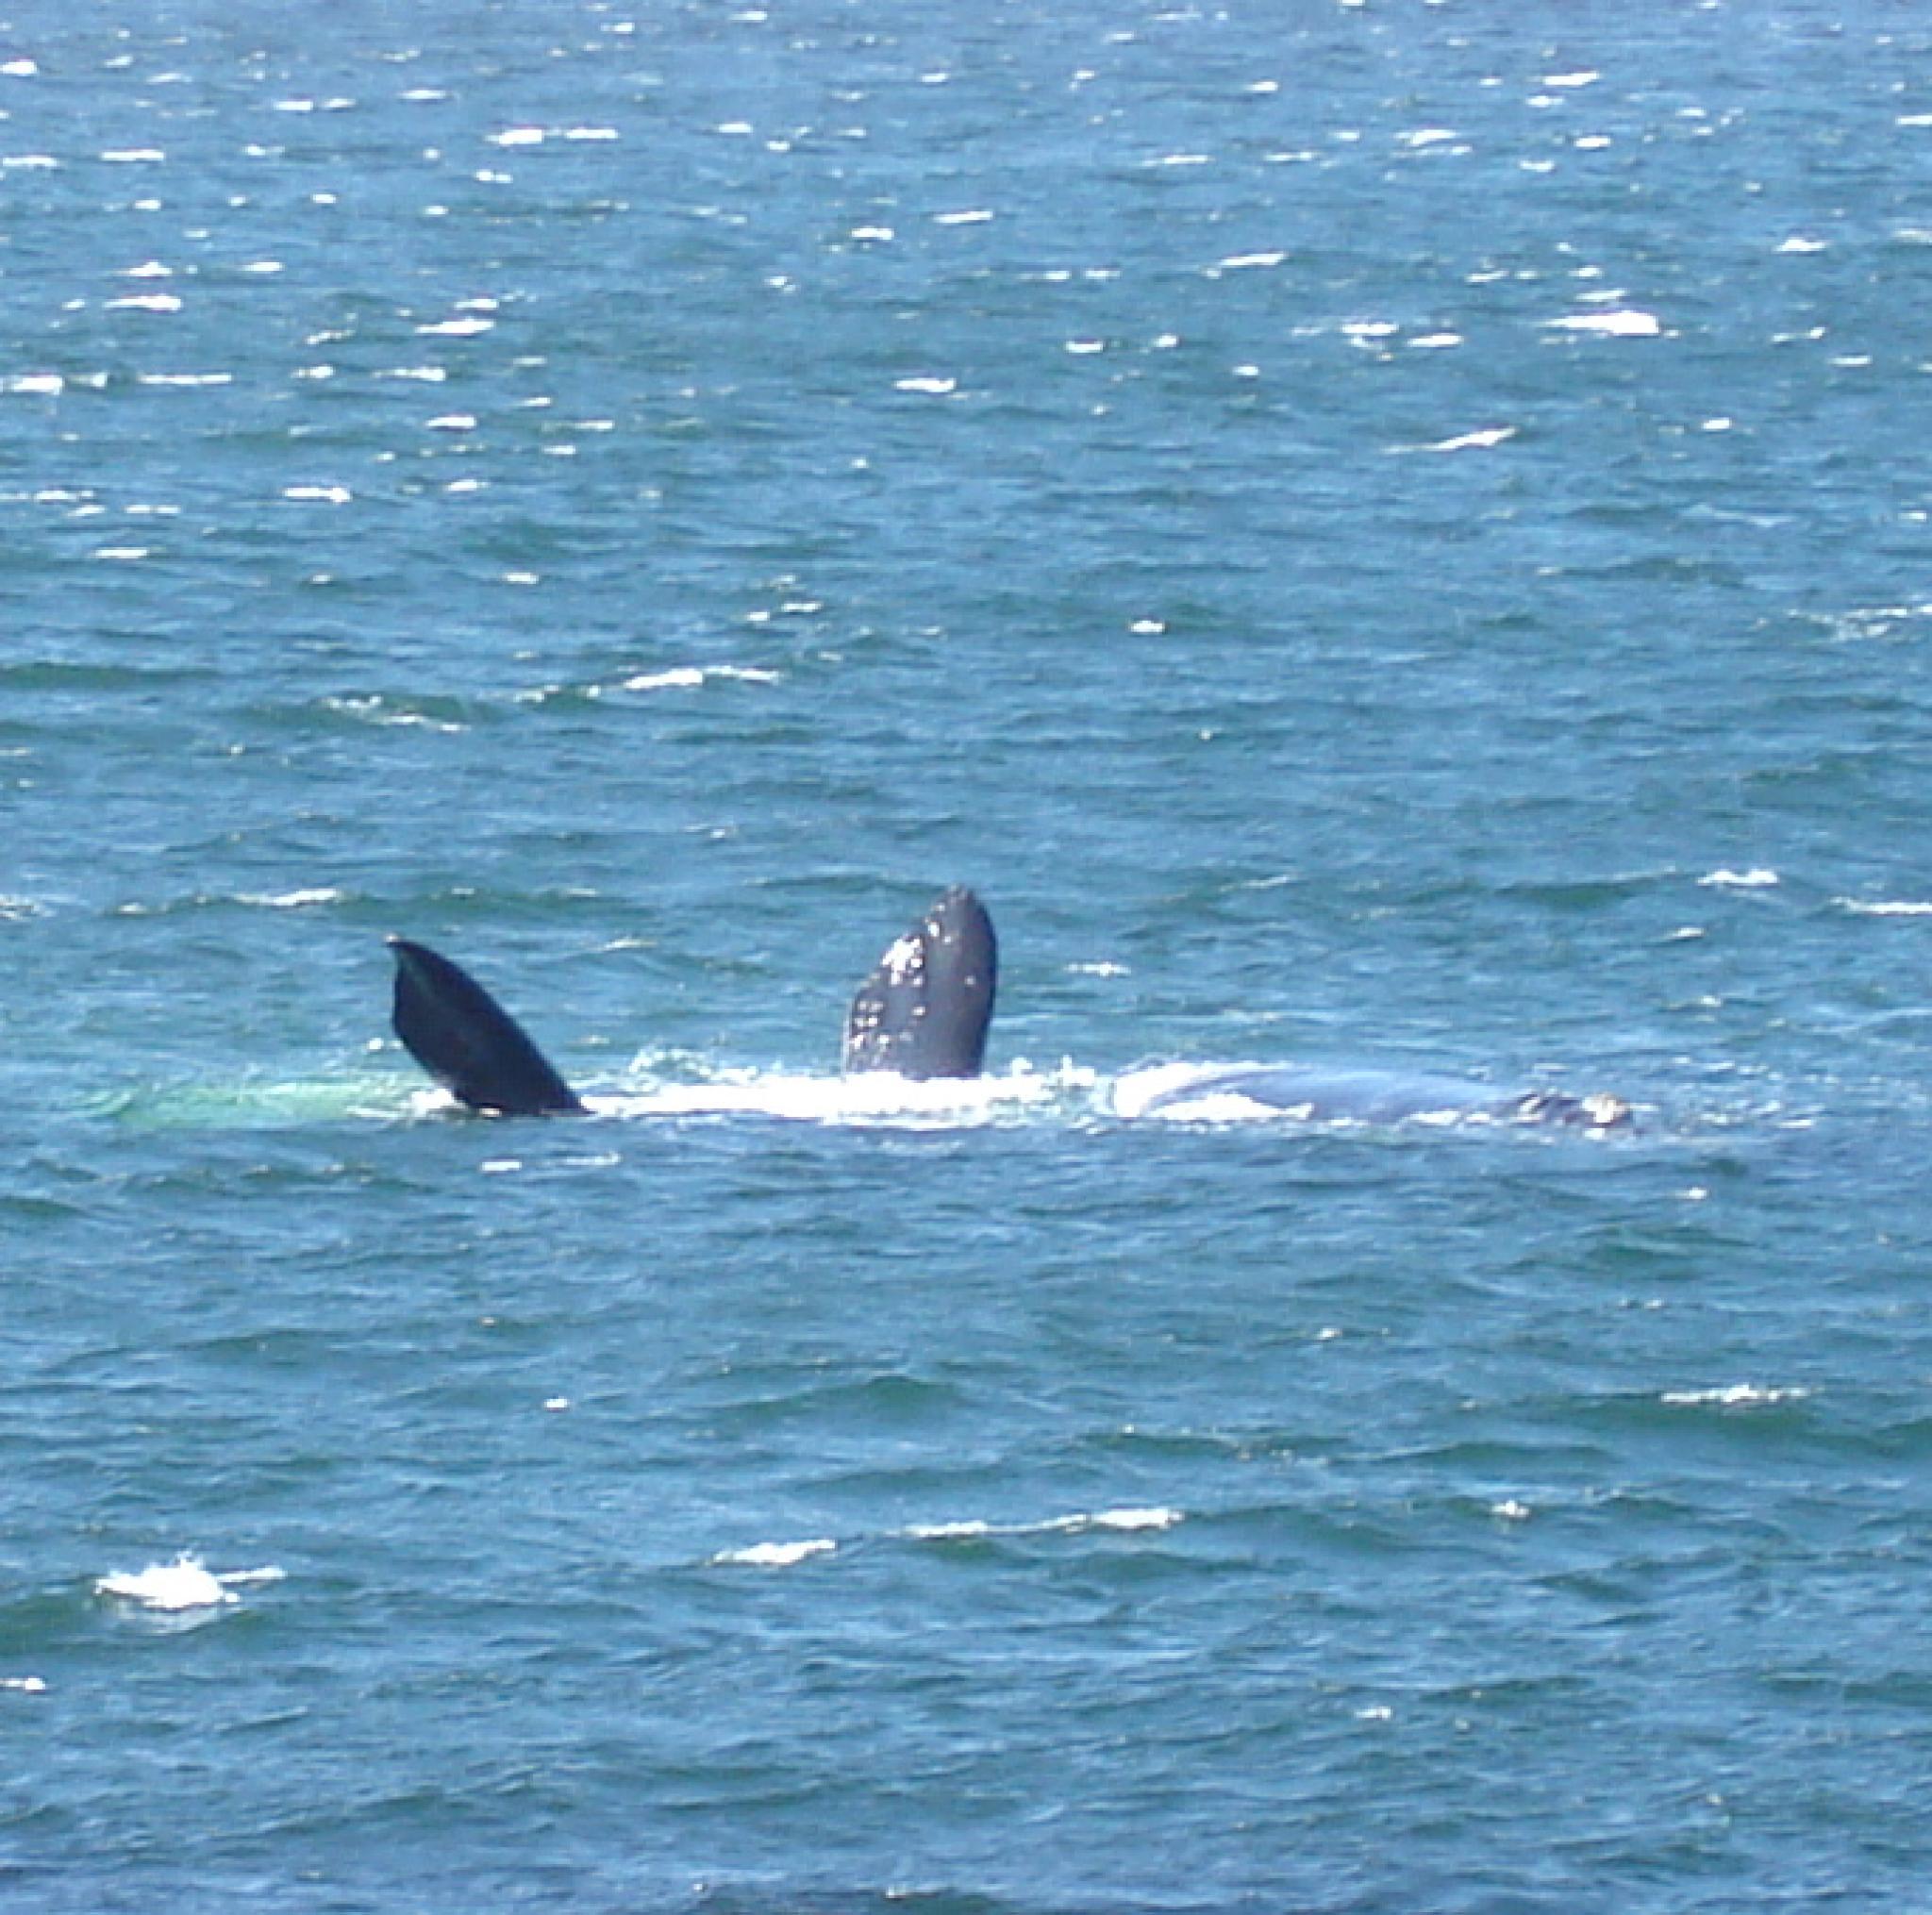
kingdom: Animalia
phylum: Chordata
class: Mammalia
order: Cetacea
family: Balaenidae
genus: Eubalaena
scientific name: Eubalaena australis
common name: Southern right whale
